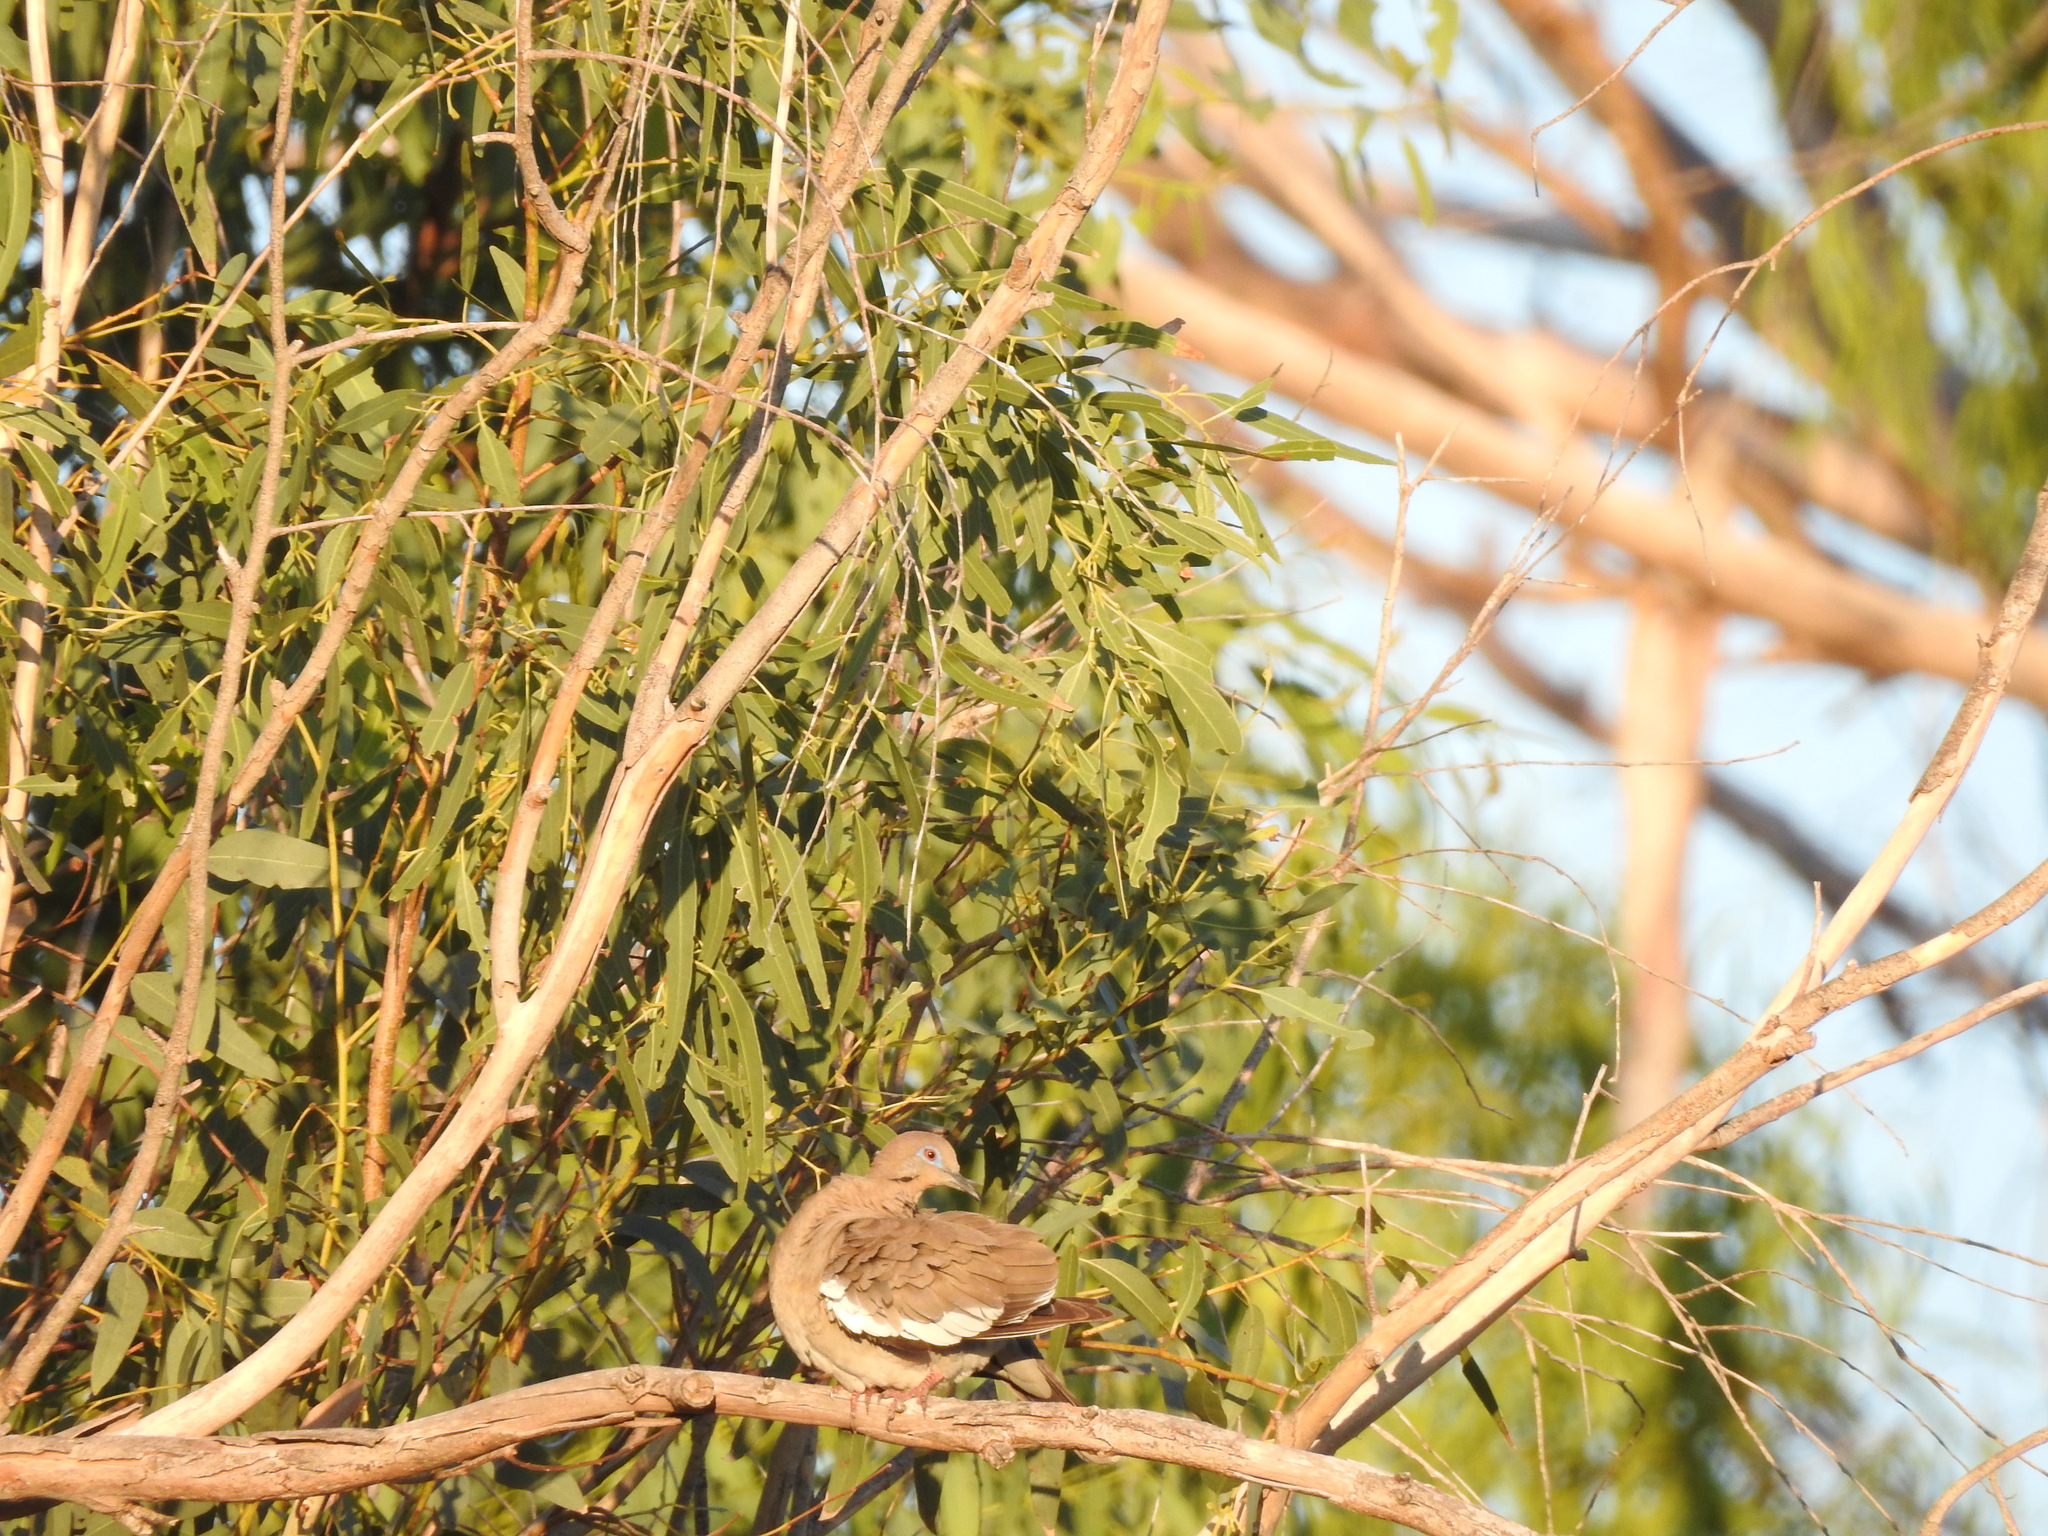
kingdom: Animalia
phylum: Chordata
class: Aves
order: Columbiformes
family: Columbidae
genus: Zenaida
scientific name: Zenaida asiatica
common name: White-winged dove
